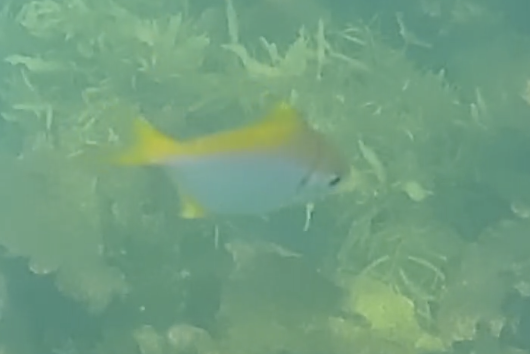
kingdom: Animalia
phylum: Chordata
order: Perciformes
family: Monodactylidae
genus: Schuettea
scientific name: Schuettea scalaripinnis
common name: Eastern pomfred
